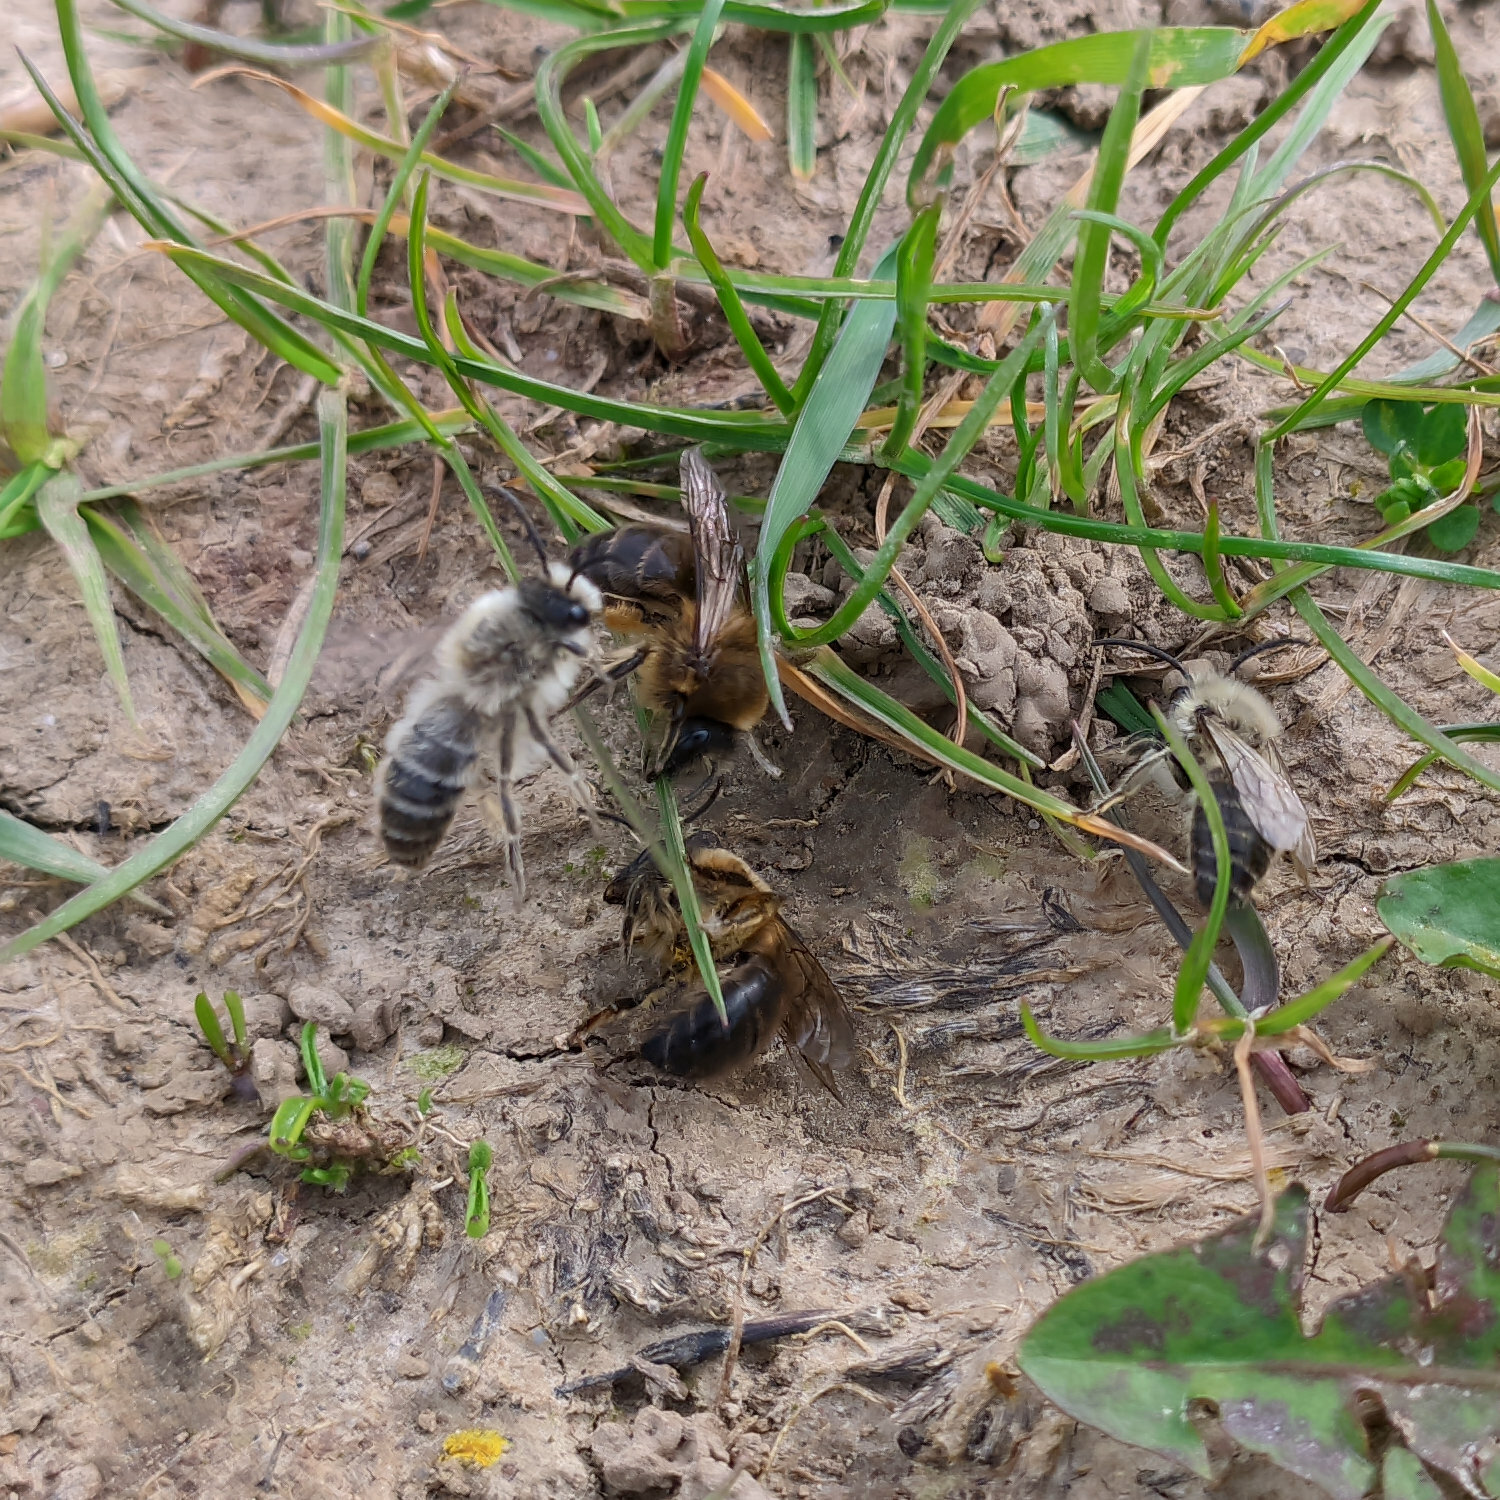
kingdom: Animalia
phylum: Arthropoda
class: Insecta
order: Hymenoptera
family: Colletidae
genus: Colletes
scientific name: Colletes cunicularius
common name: Early colletes
